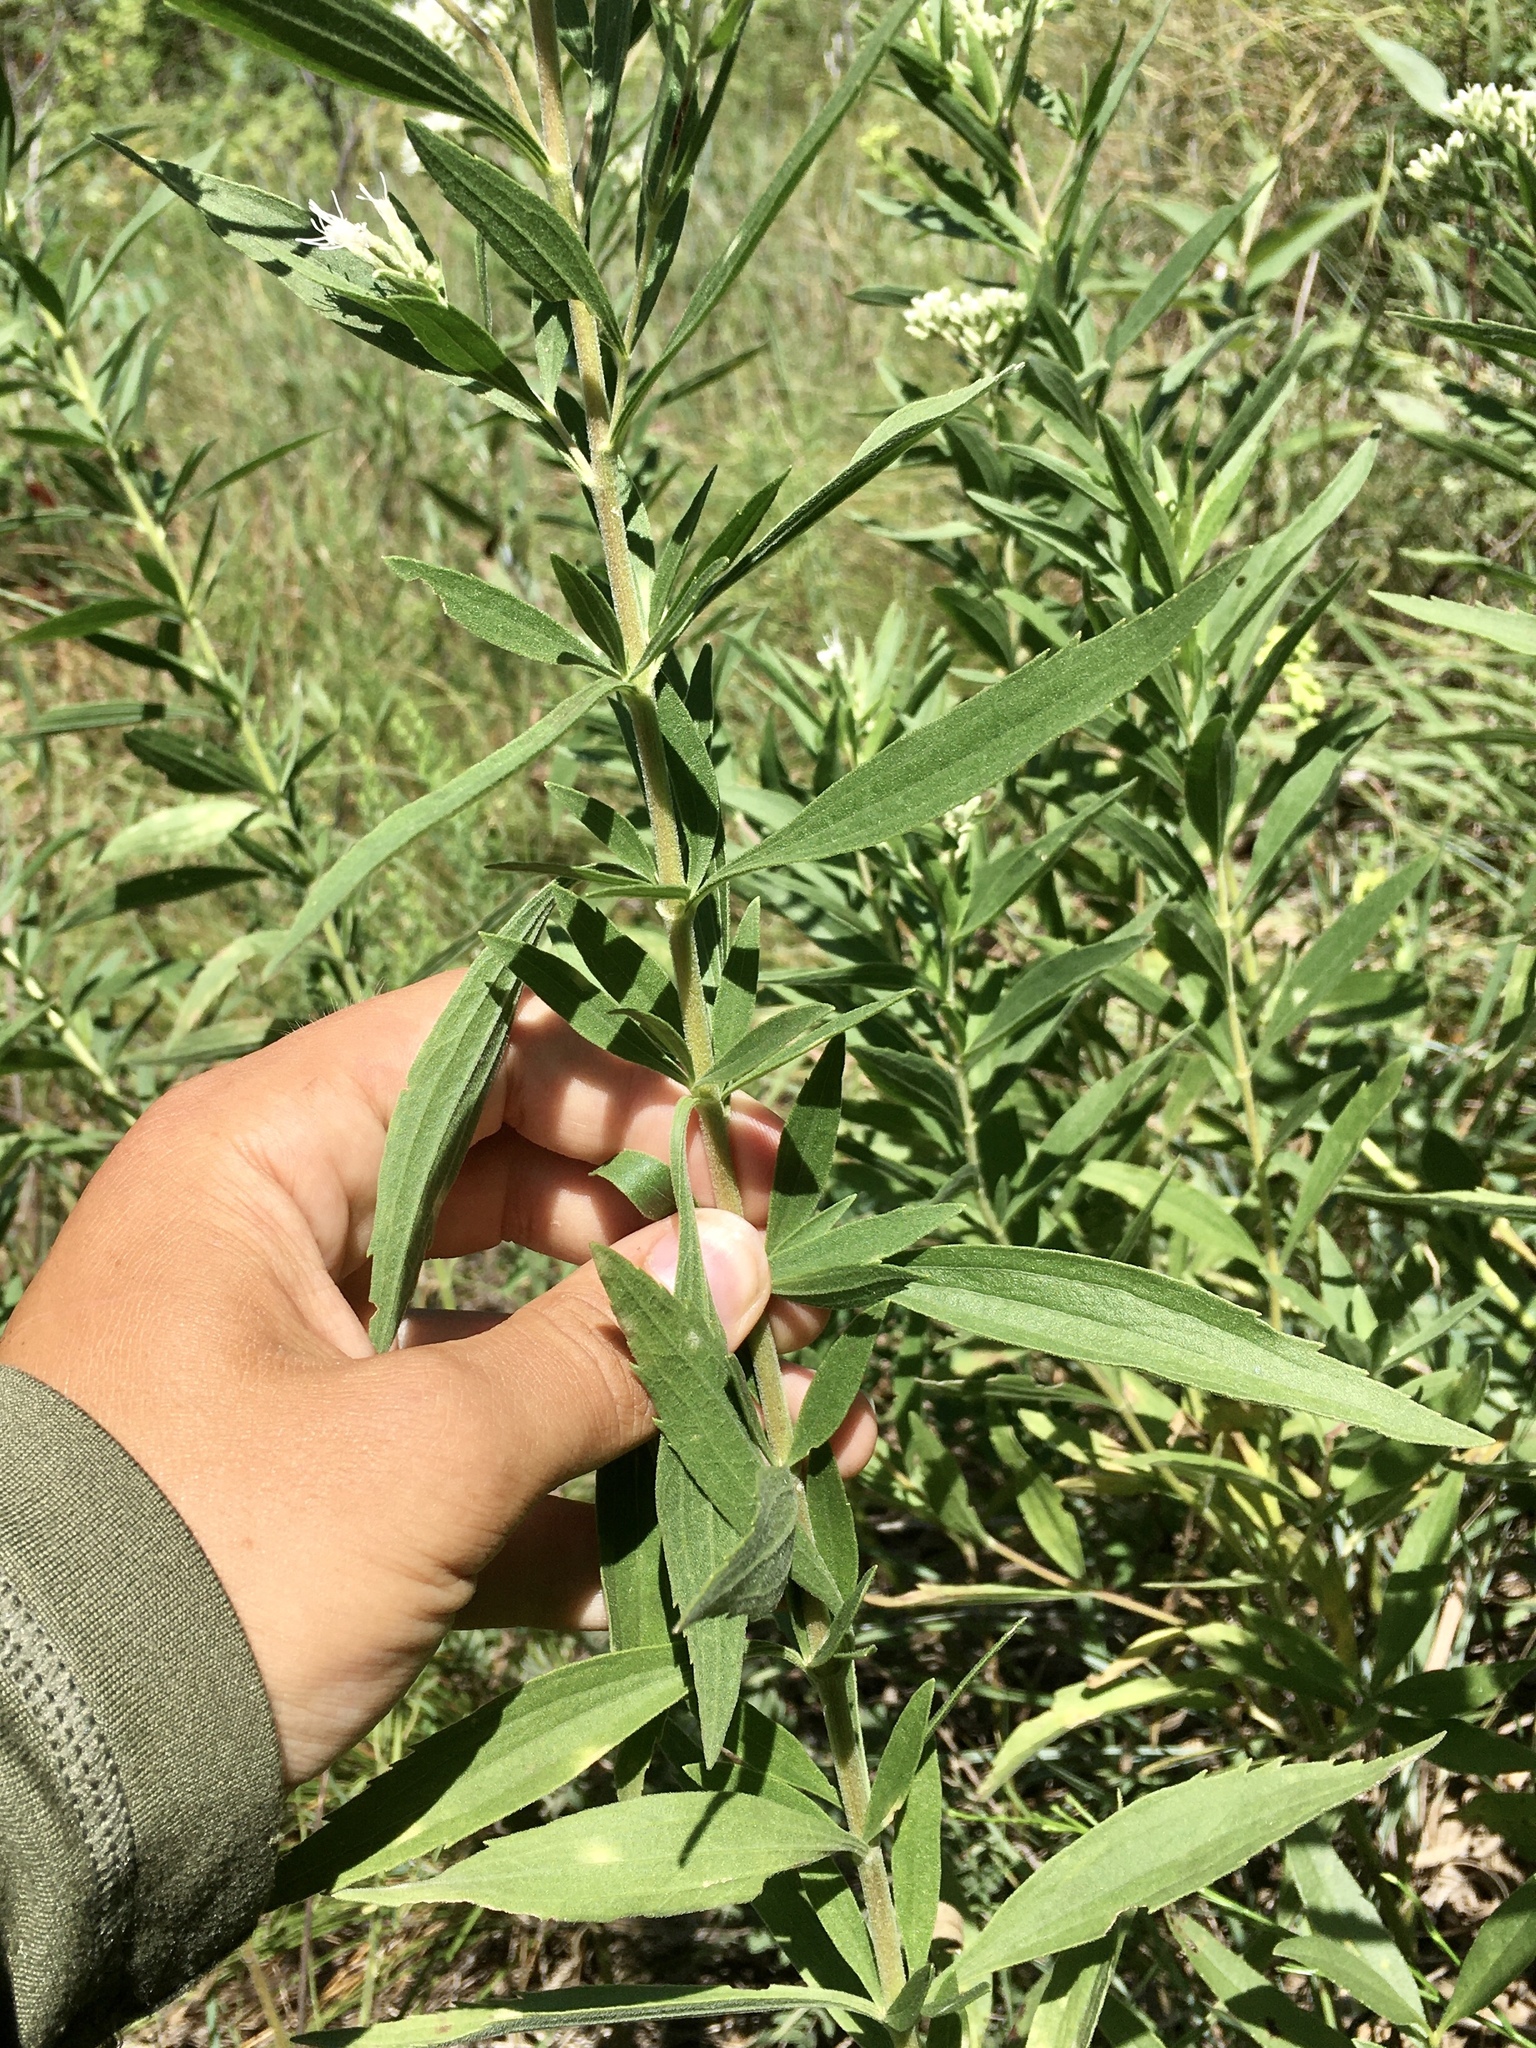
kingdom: Plantae
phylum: Tracheophyta
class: Magnoliopsida
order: Asterales
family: Asteraceae
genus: Eupatorium
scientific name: Eupatorium altissimum
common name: Tall thoroughwort
